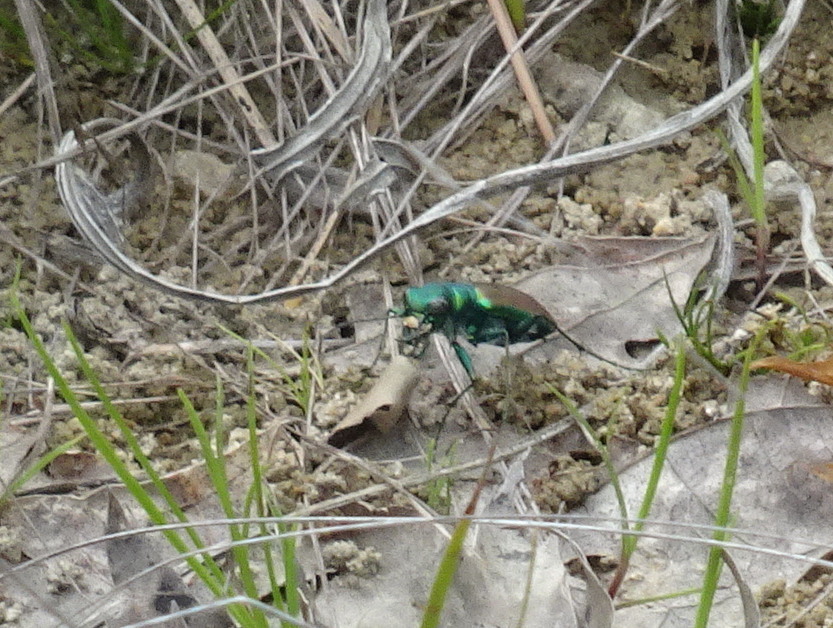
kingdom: Animalia
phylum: Arthropoda
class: Insecta
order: Coleoptera
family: Carabidae
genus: Cicindela
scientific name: Cicindela splendida
